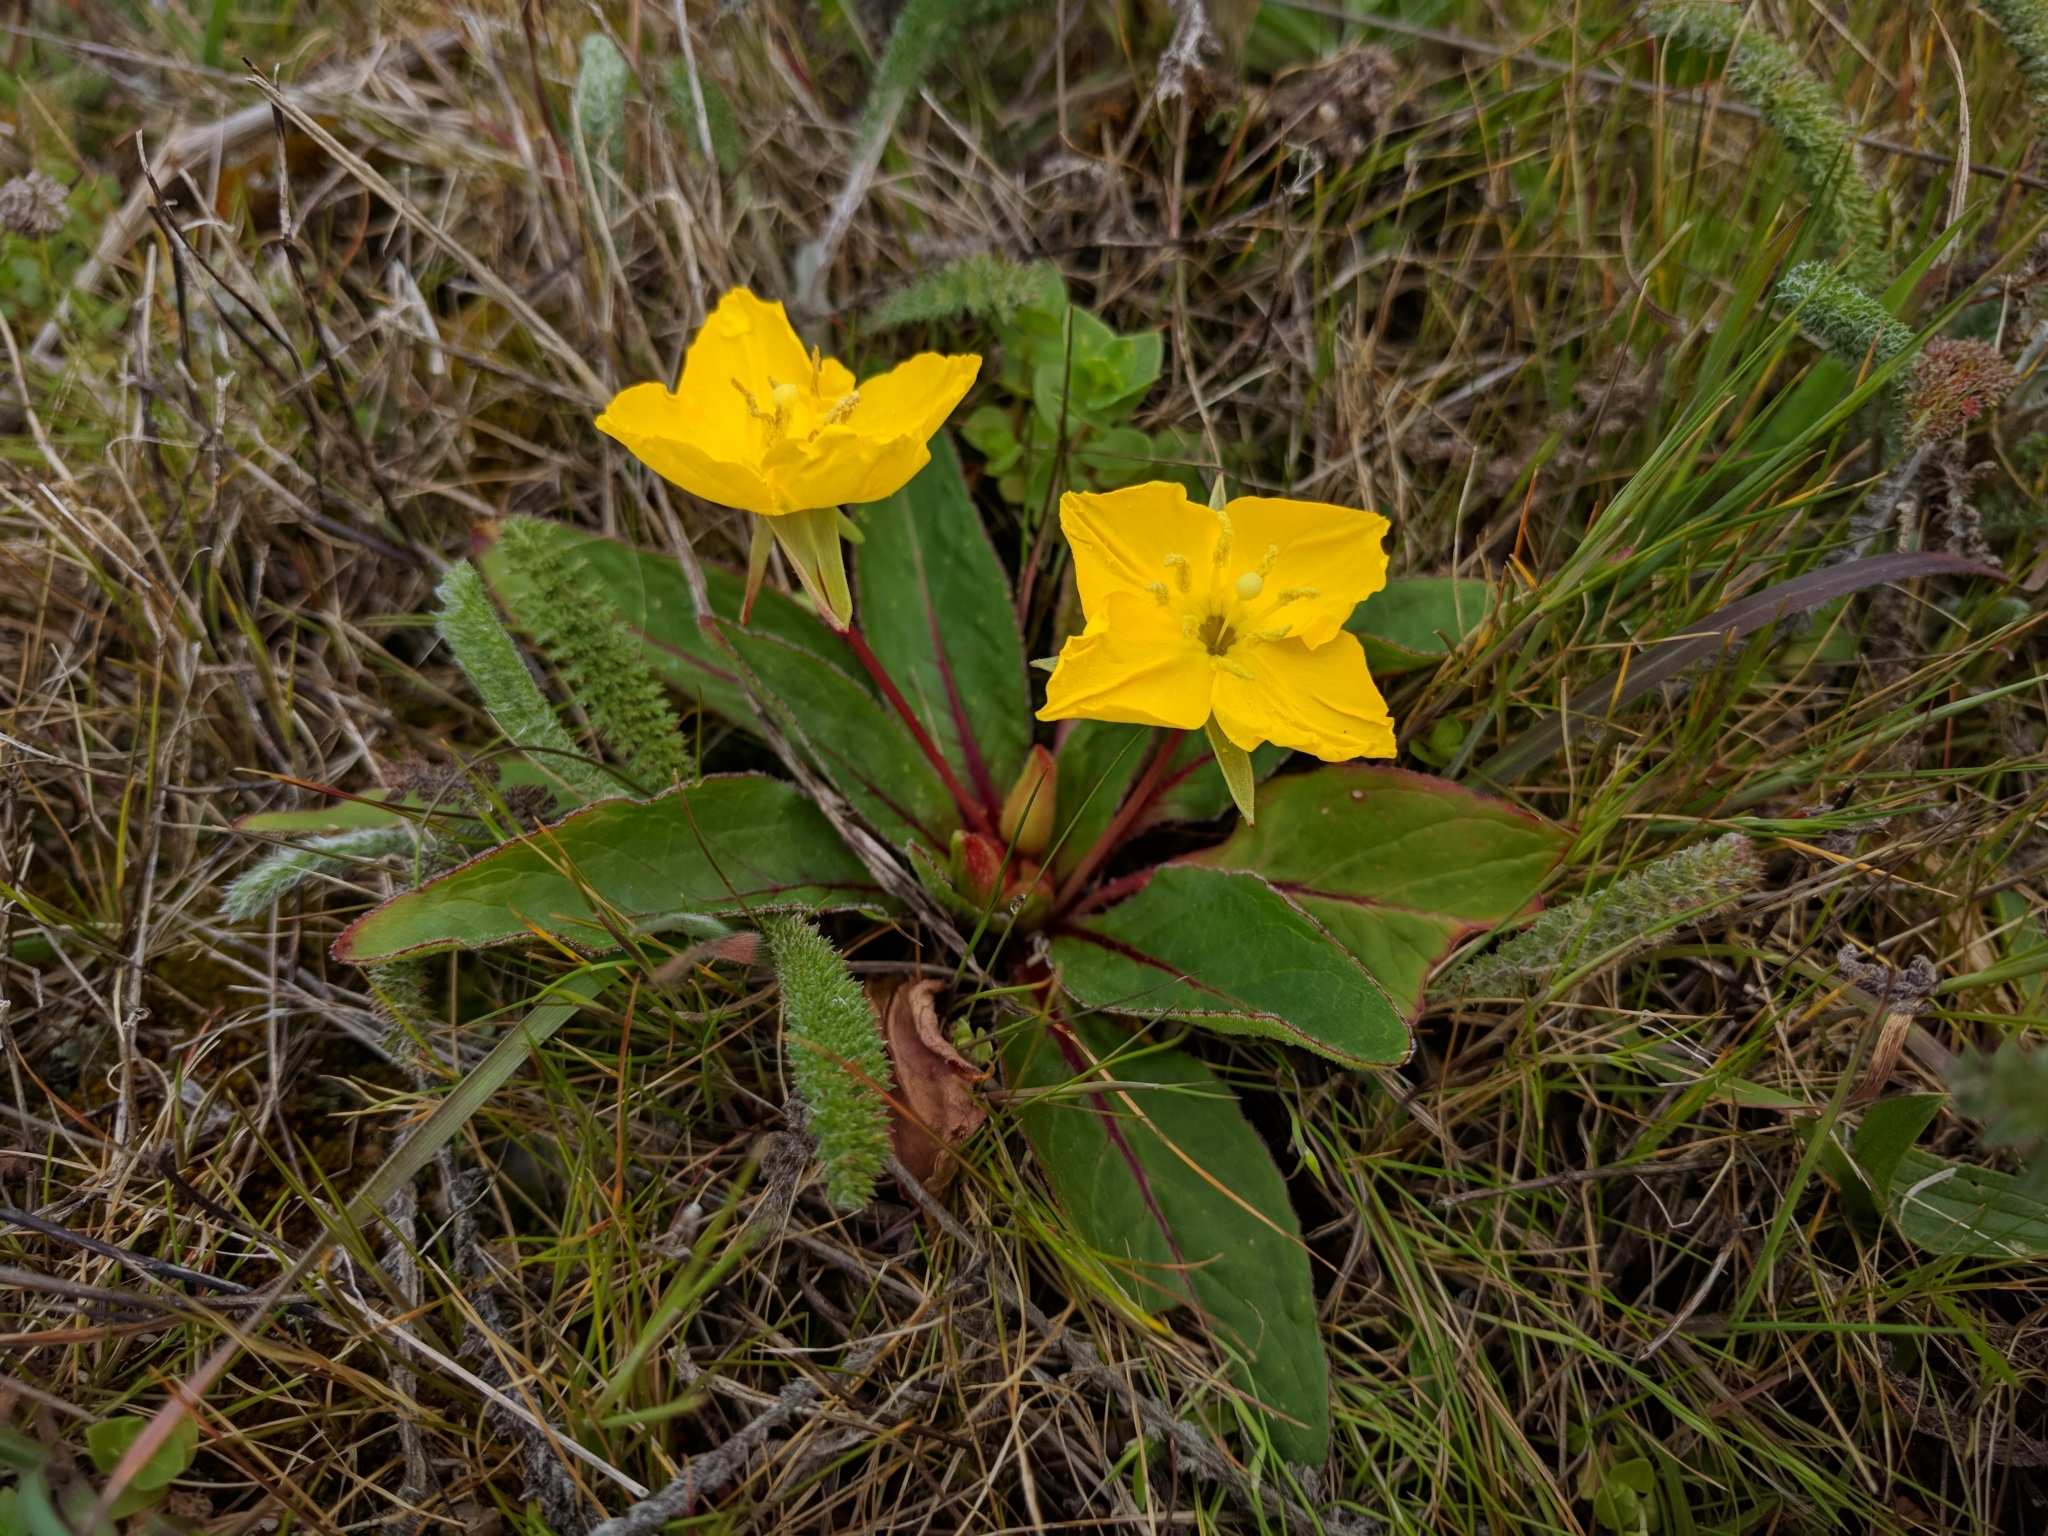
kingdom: Plantae
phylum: Tracheophyta
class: Magnoliopsida
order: Myrtales
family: Onagraceae
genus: Taraxia
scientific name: Taraxia ovata
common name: Goldeneggs
